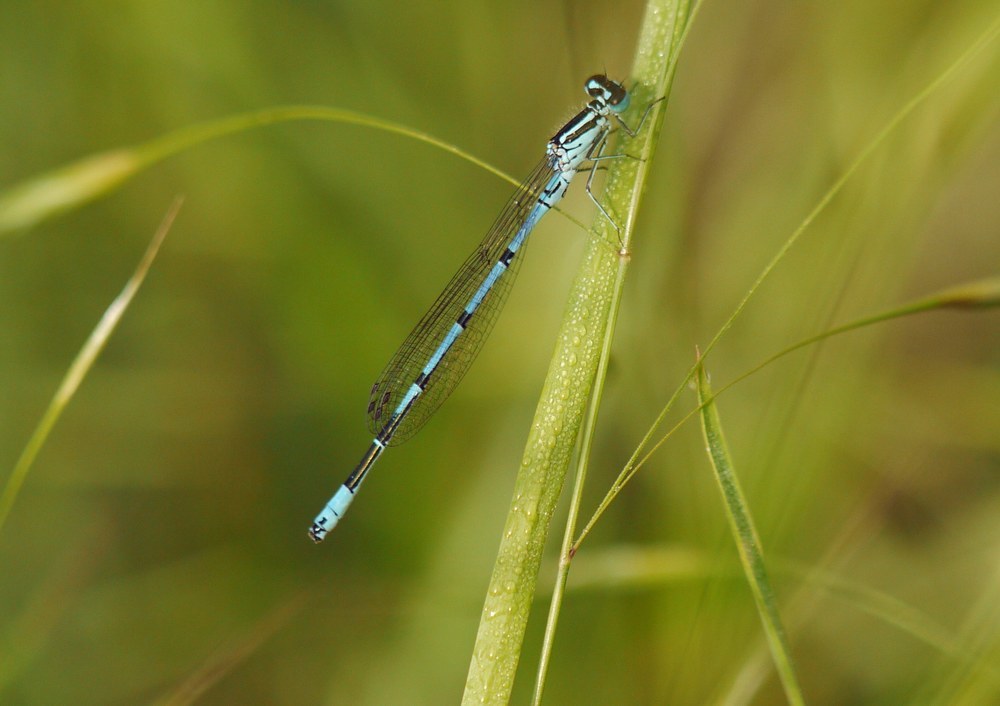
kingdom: Animalia
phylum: Arthropoda
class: Insecta
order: Odonata
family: Coenagrionidae
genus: Coenagrion
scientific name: Coenagrion puella
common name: Azure damselfly
